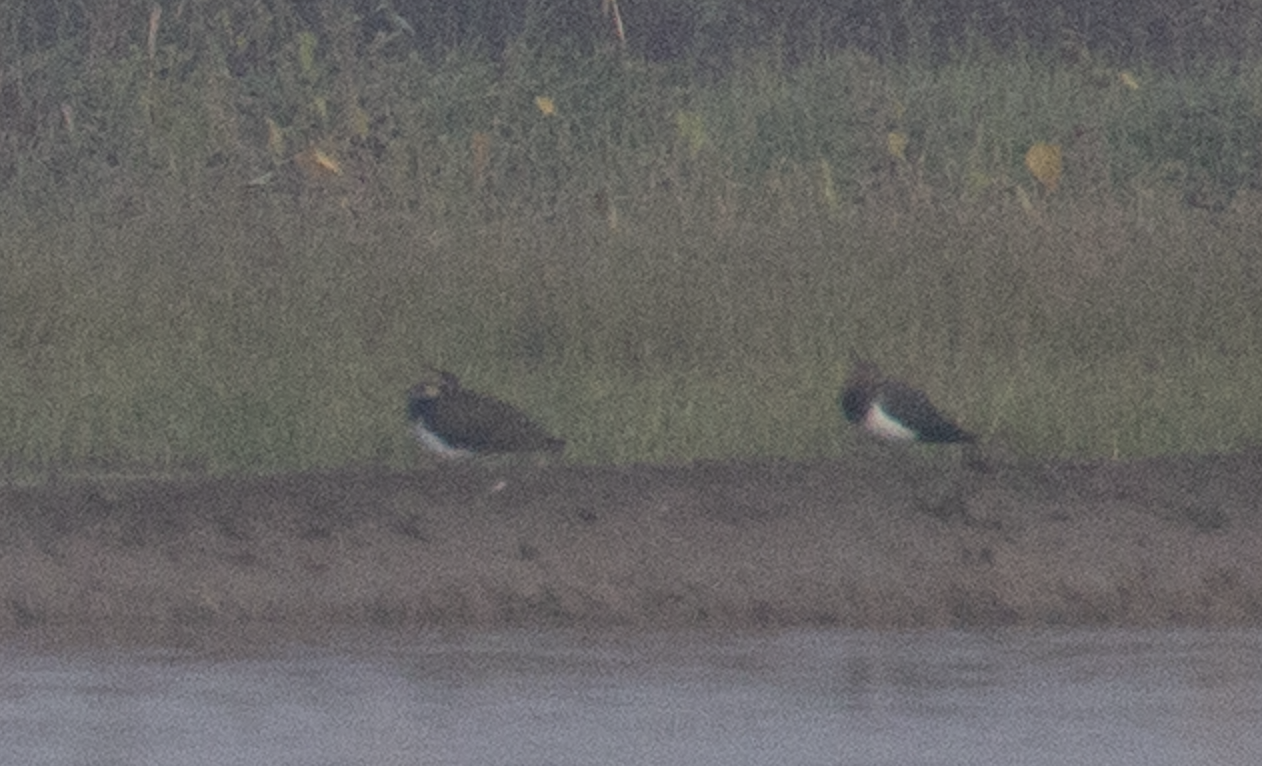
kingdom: Animalia
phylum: Chordata
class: Aves
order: Charadriiformes
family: Charadriidae
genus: Vanellus
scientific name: Vanellus vanellus
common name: Northern lapwing
